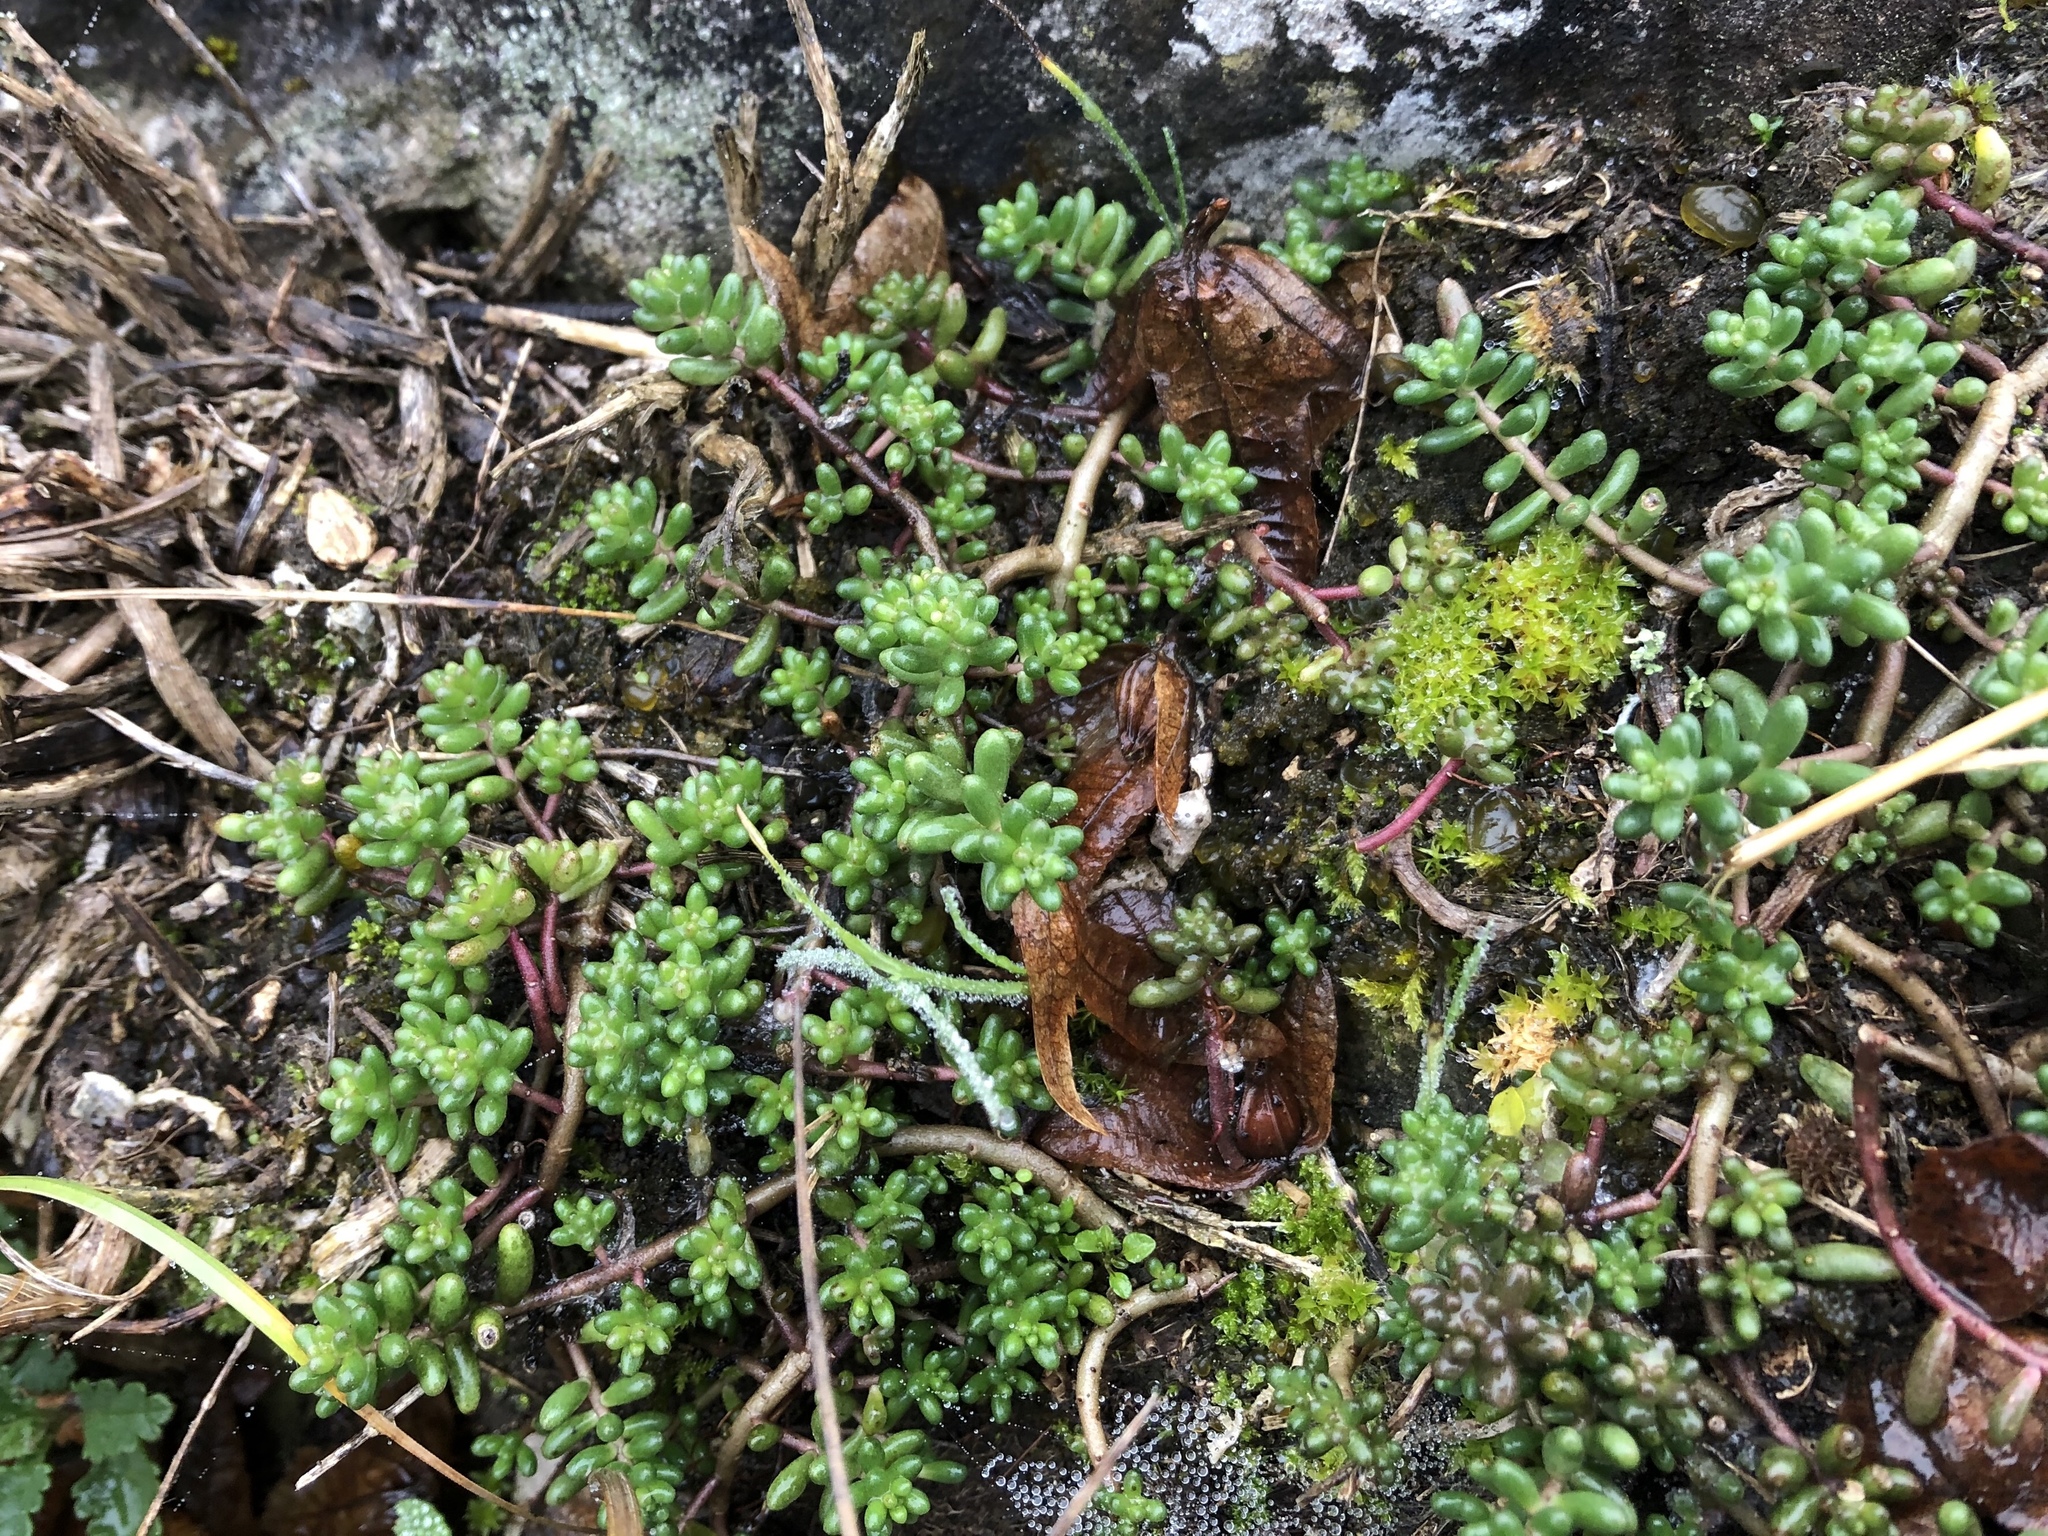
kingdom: Plantae
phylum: Tracheophyta
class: Magnoliopsida
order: Saxifragales
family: Crassulaceae
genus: Sedum
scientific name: Sedum album
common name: White stonecrop
